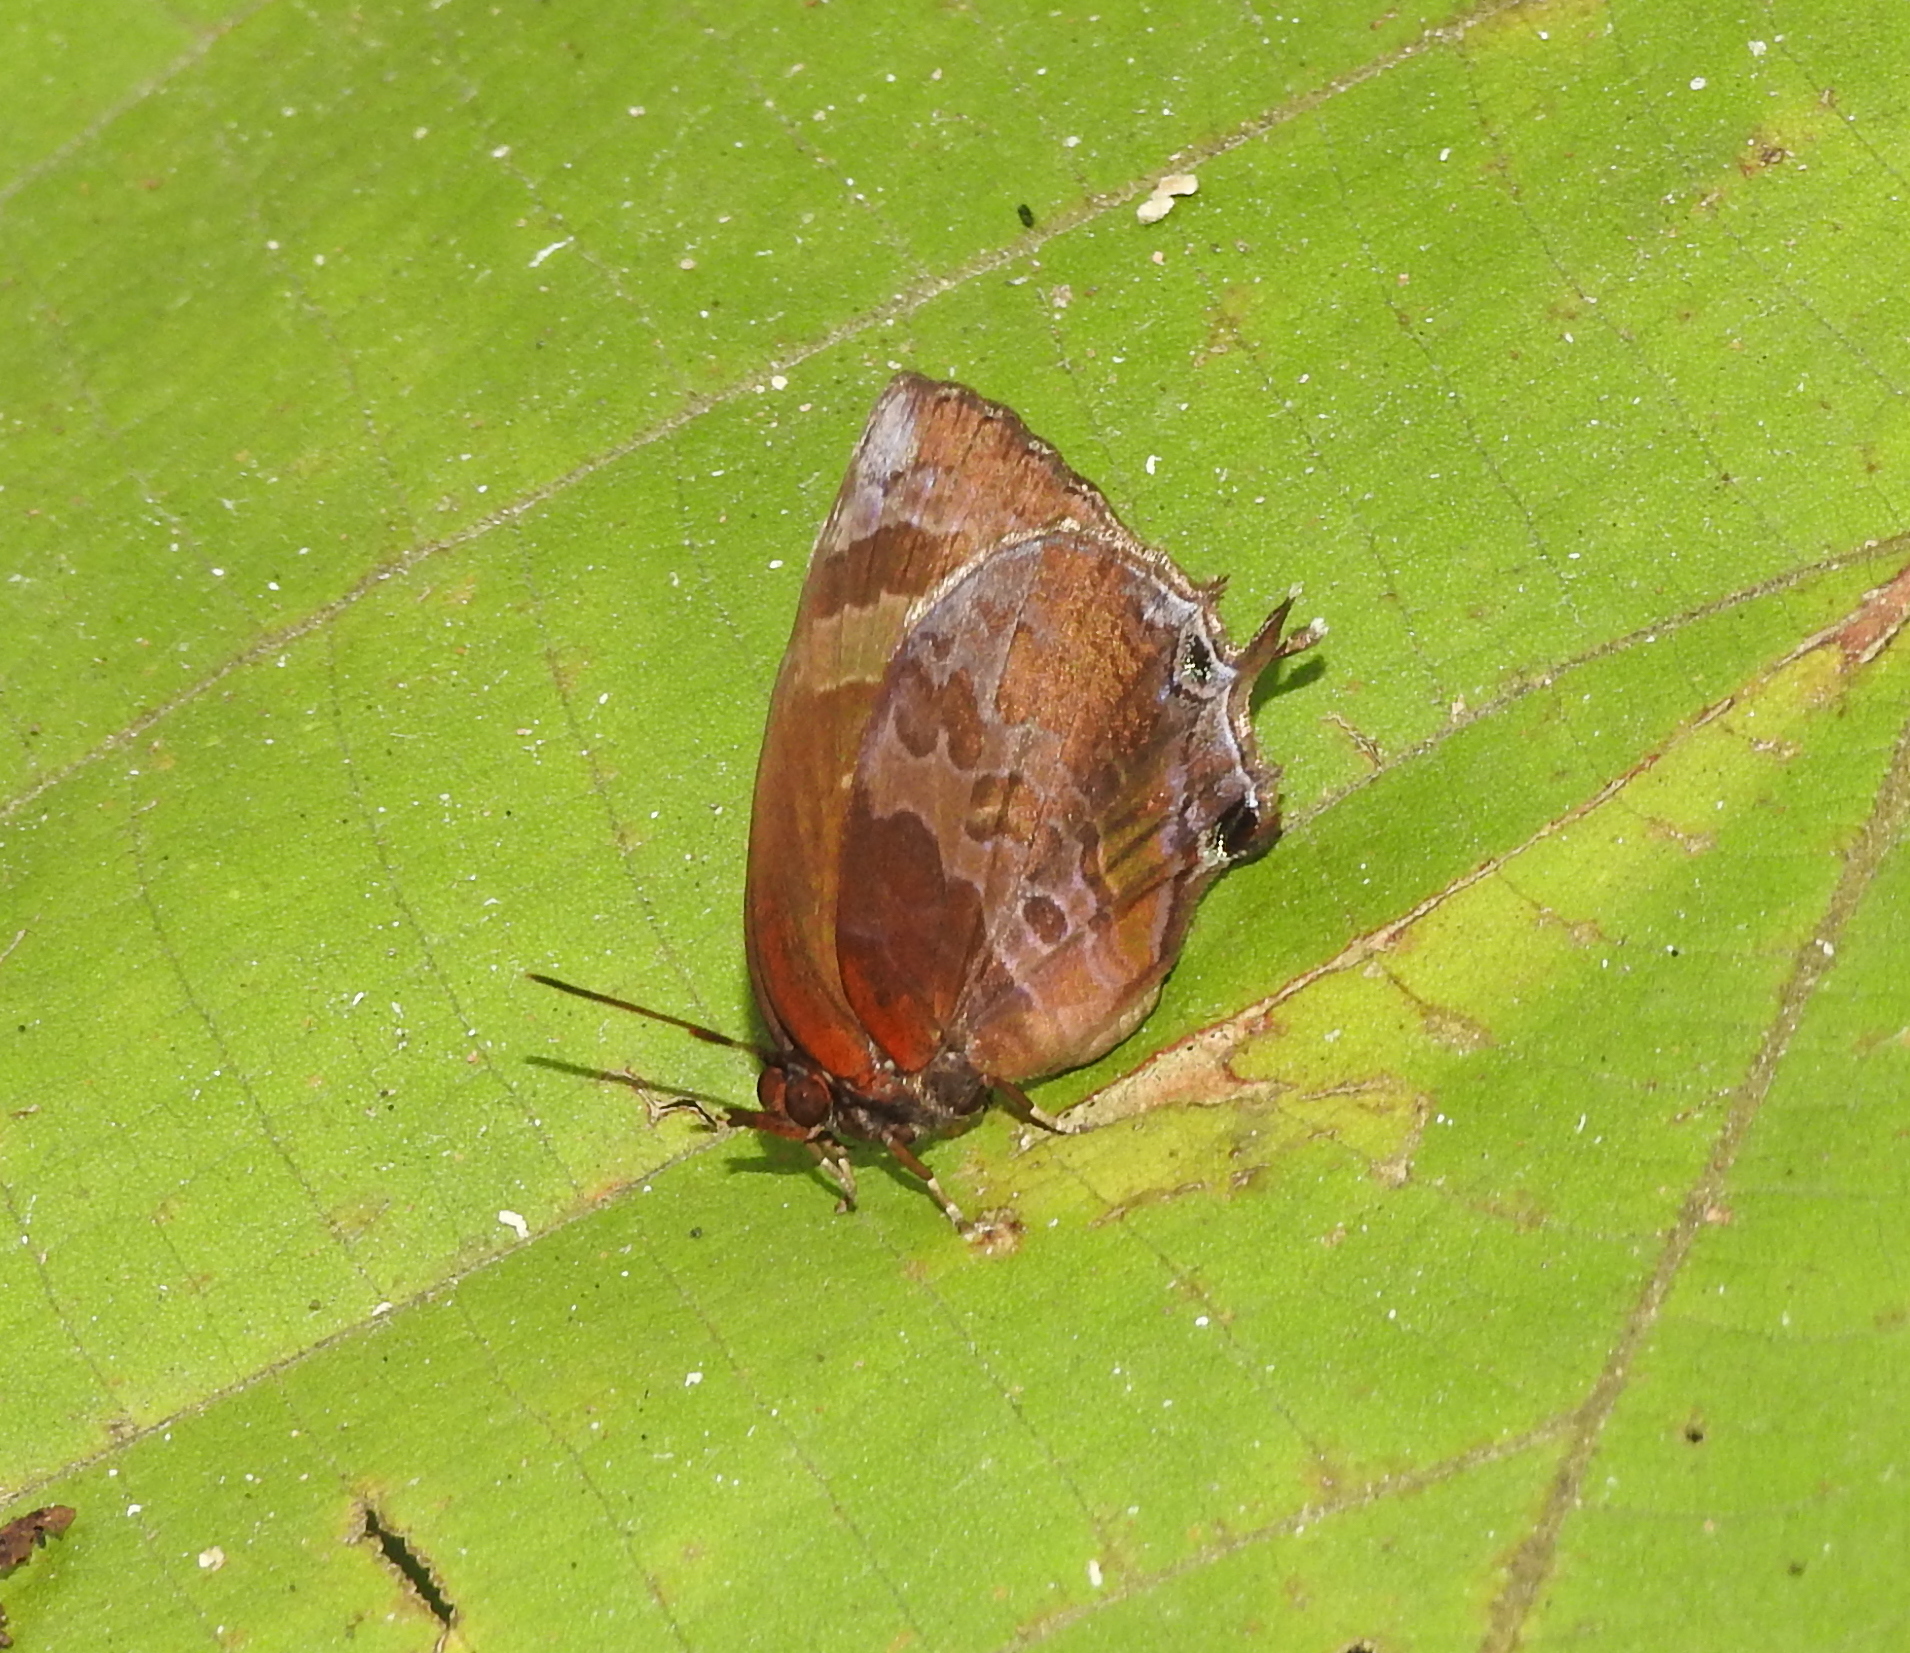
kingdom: Animalia
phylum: Arthropoda
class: Insecta
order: Lepidoptera
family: Lycaenidae
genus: Flos
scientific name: Flos apidanus
